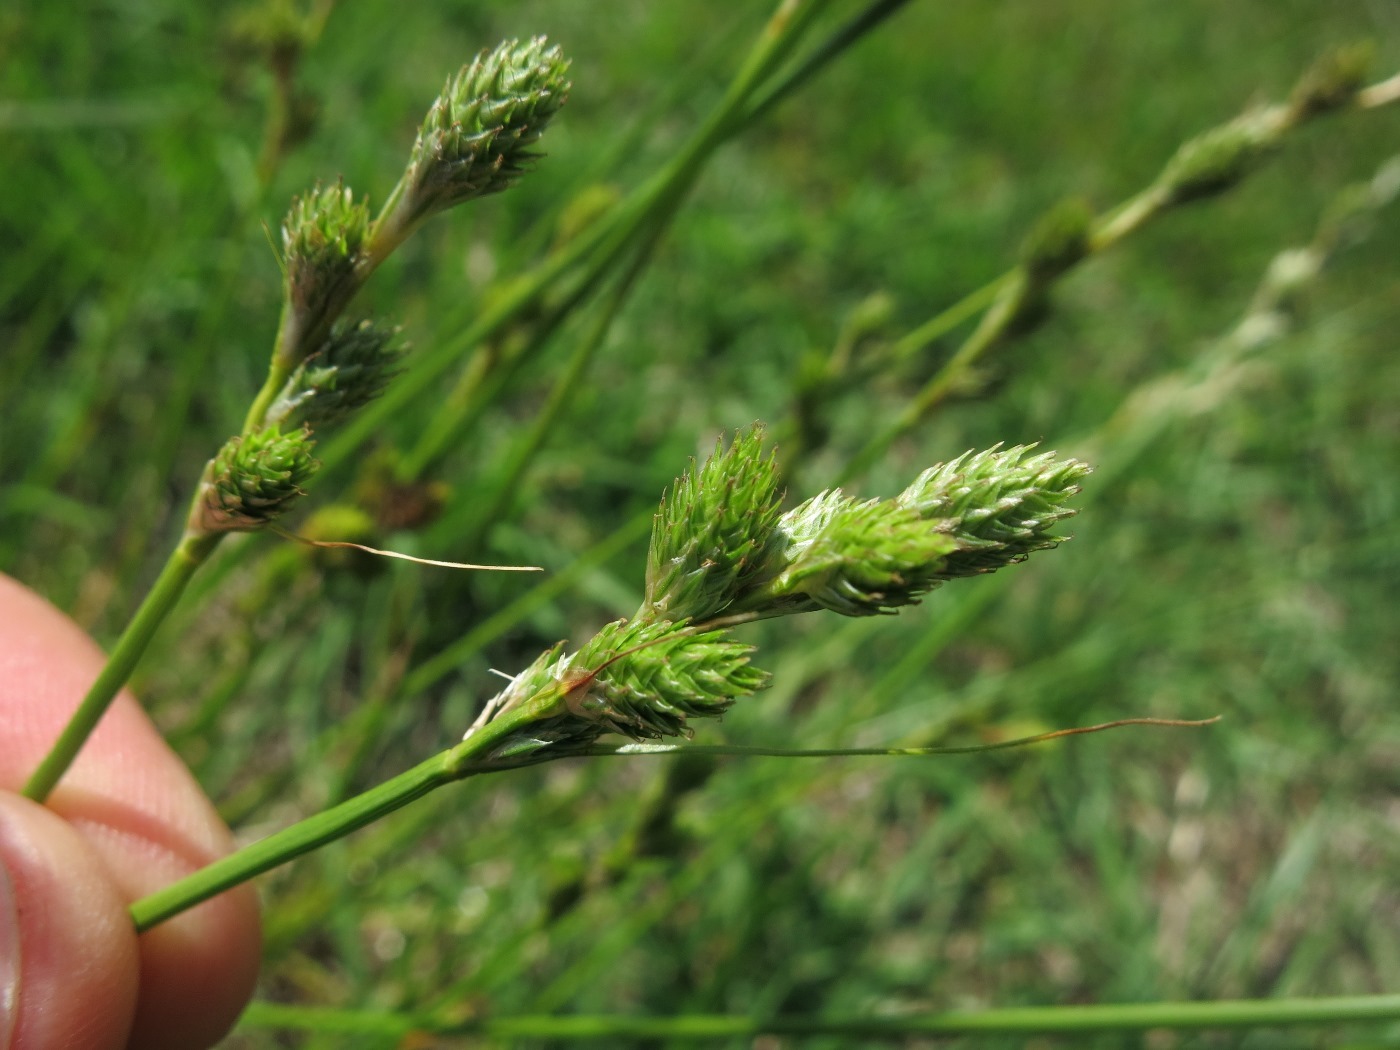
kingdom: Plantae
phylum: Tracheophyta
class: Liliopsida
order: Poales
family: Cyperaceae
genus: Carex
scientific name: Carex longii
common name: Long's sedge
